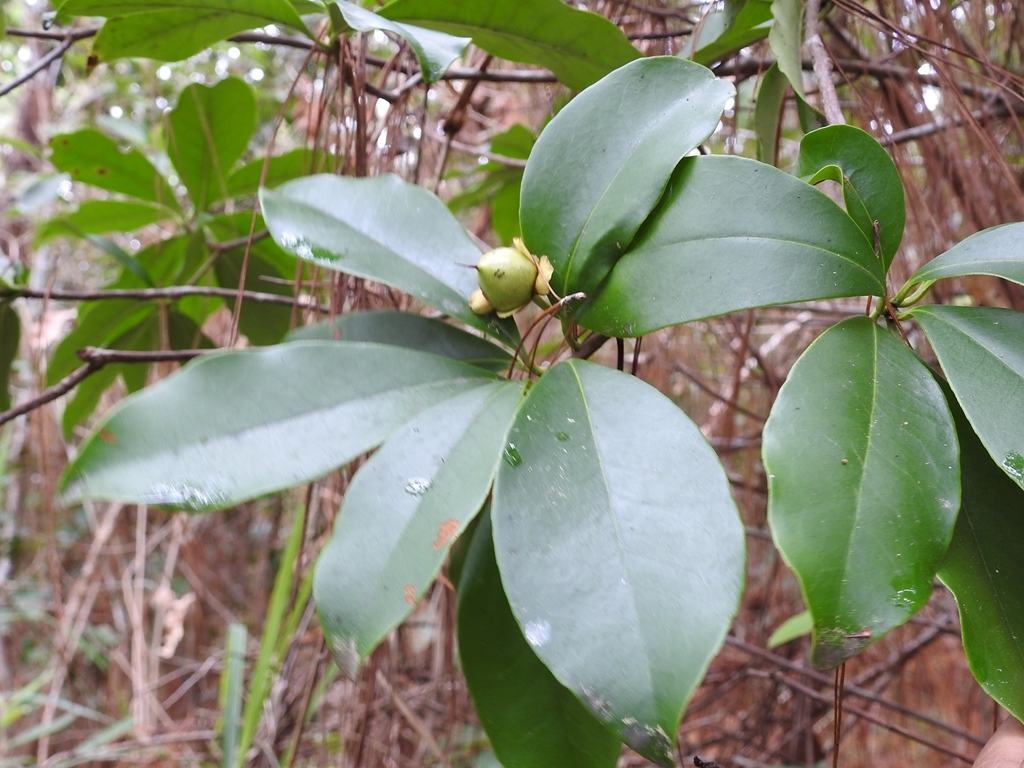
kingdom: Plantae
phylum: Tracheophyta
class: Magnoliopsida
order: Ericales
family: Pentaphylacaceae
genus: Ternstroemia
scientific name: Ternstroemia tepezapote
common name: Copey vera
